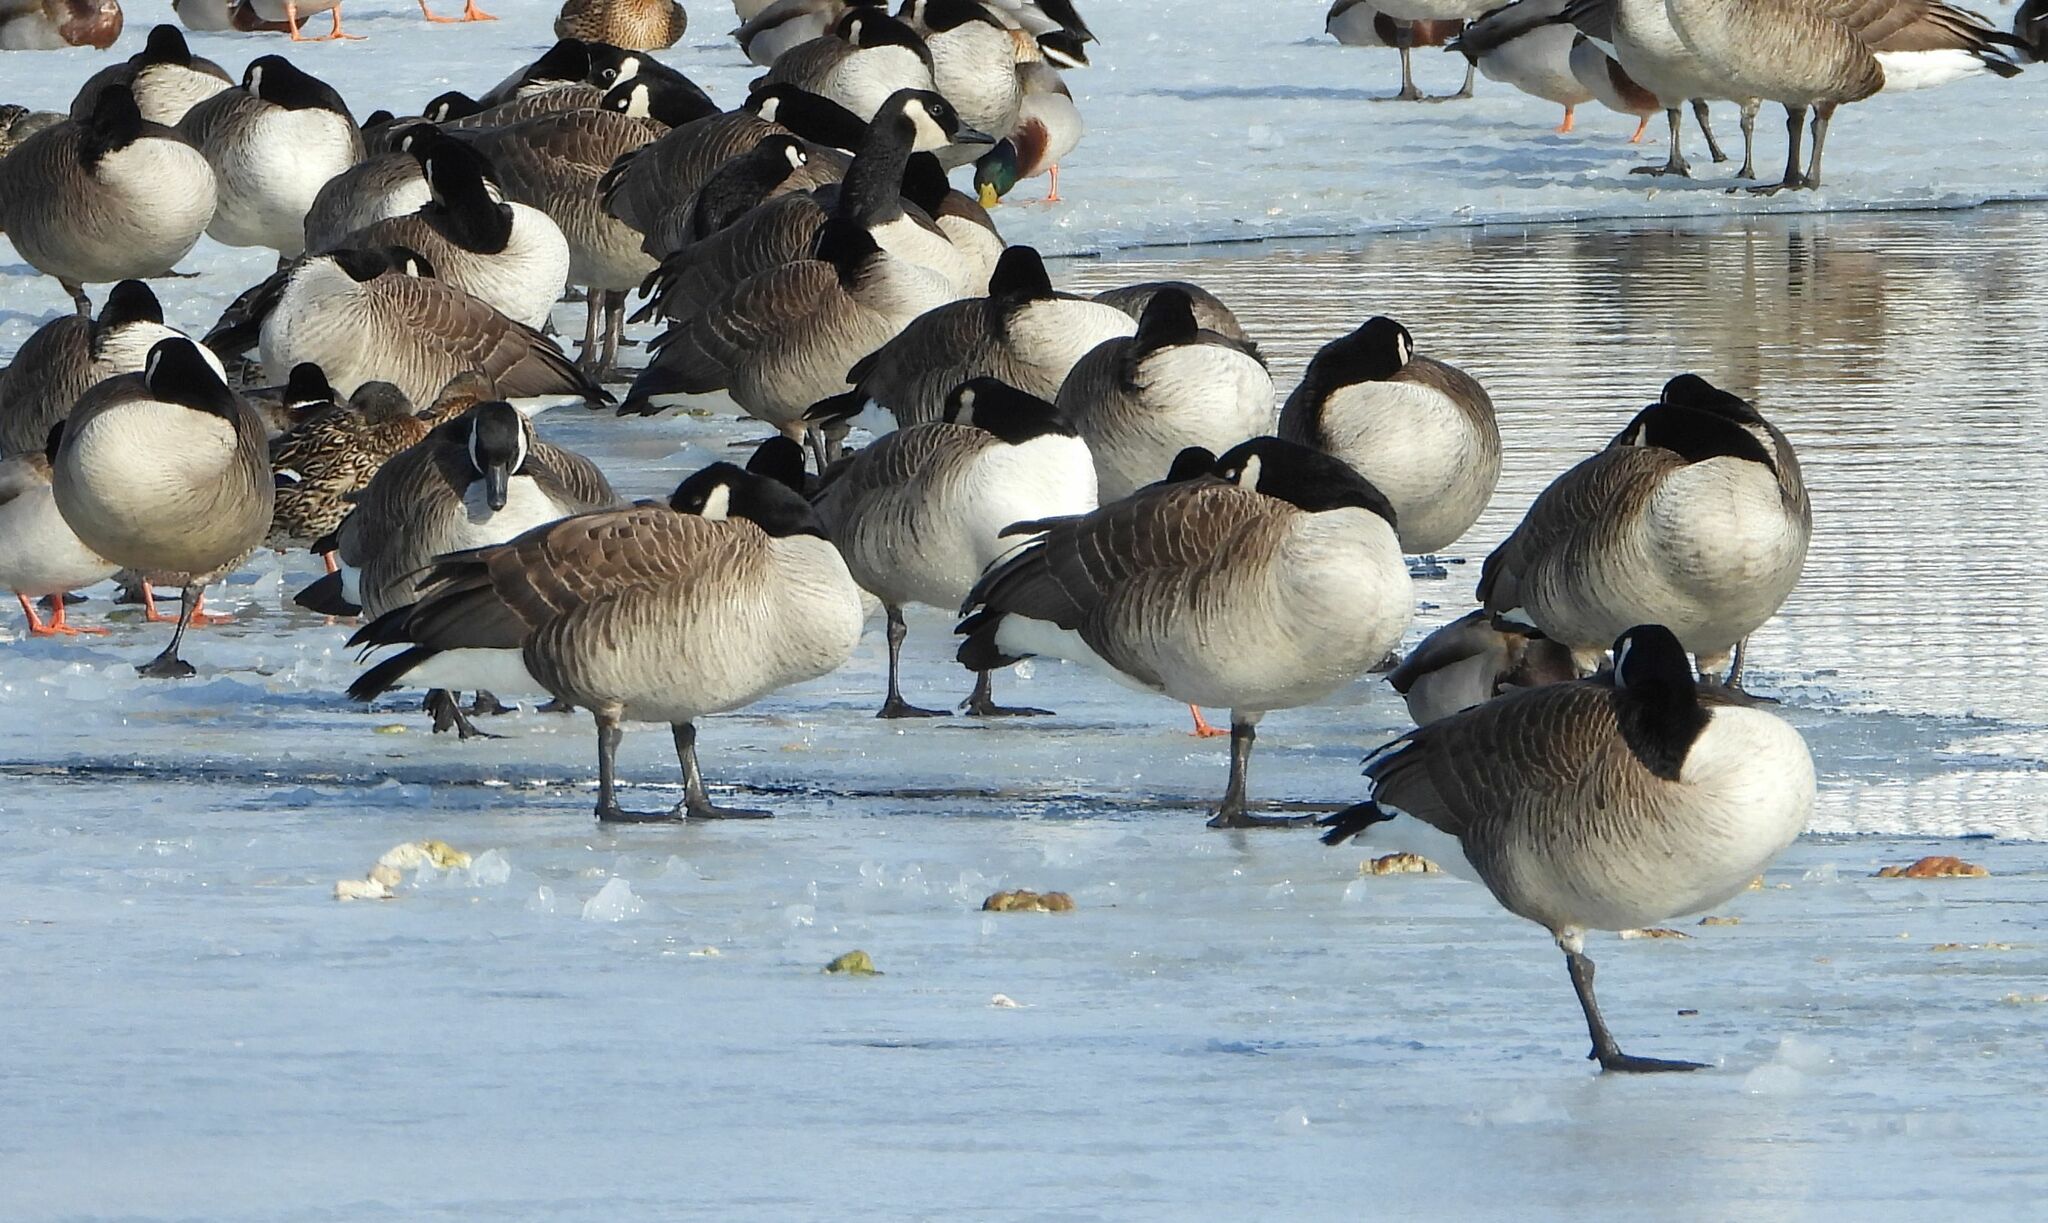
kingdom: Animalia
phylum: Chordata
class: Aves
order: Anseriformes
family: Anatidae
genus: Branta
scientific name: Branta canadensis
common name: Canada goose
